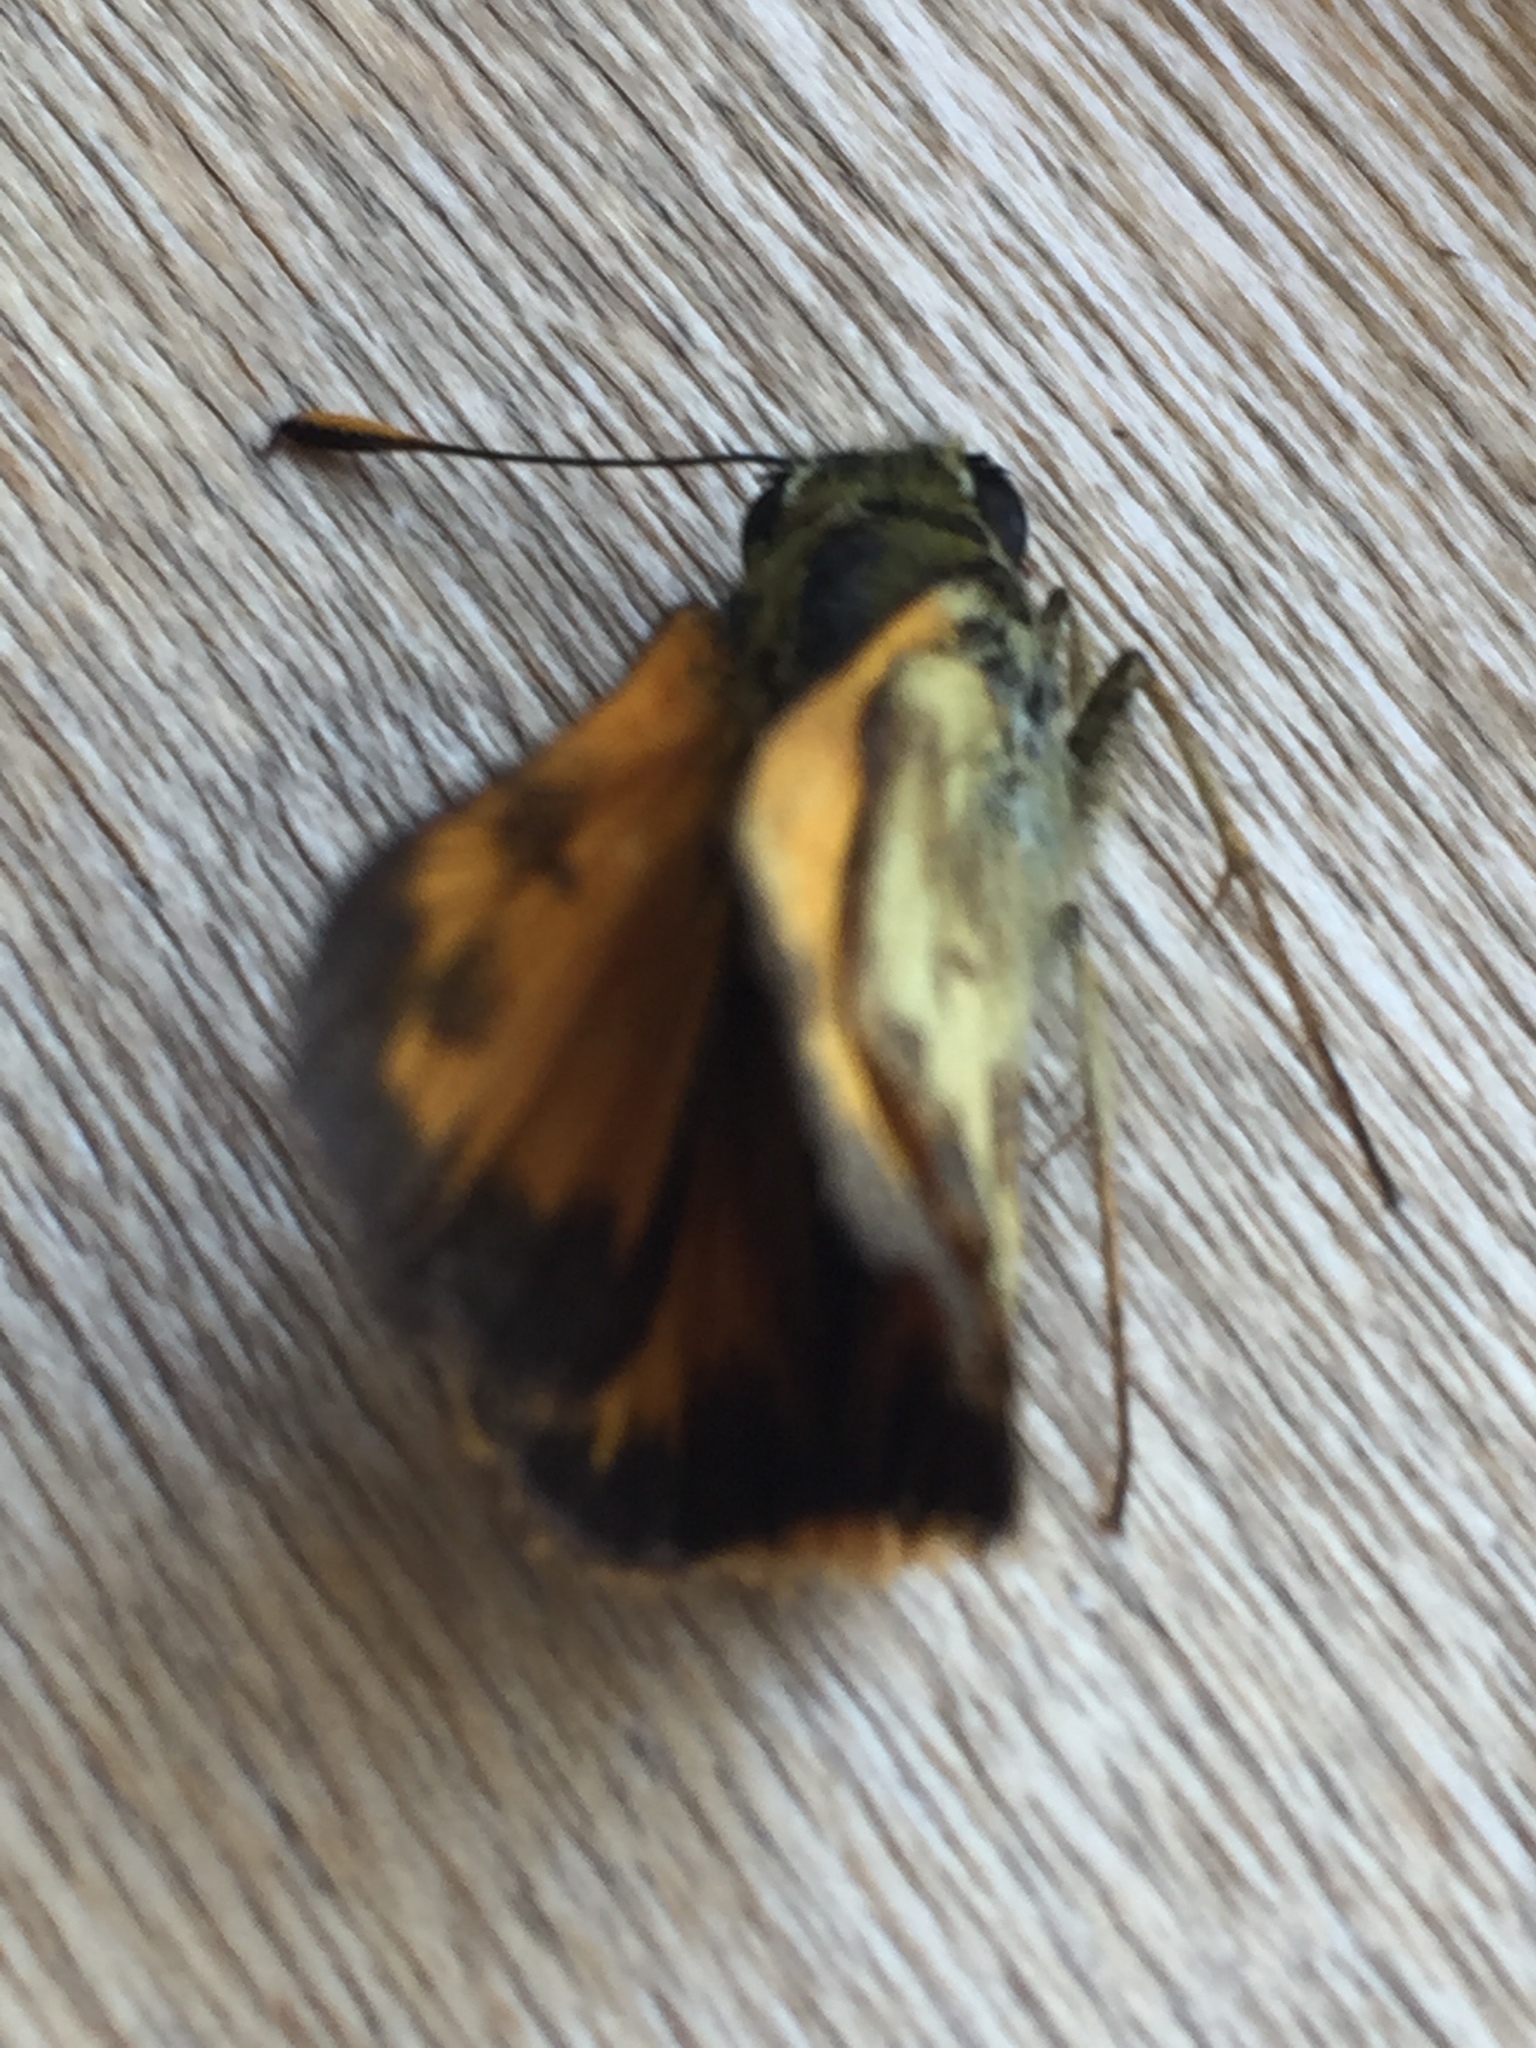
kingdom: Animalia
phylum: Arthropoda
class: Insecta
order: Lepidoptera
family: Hesperiidae
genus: Lon
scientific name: Lon taxiles
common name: Taxiles skipper
